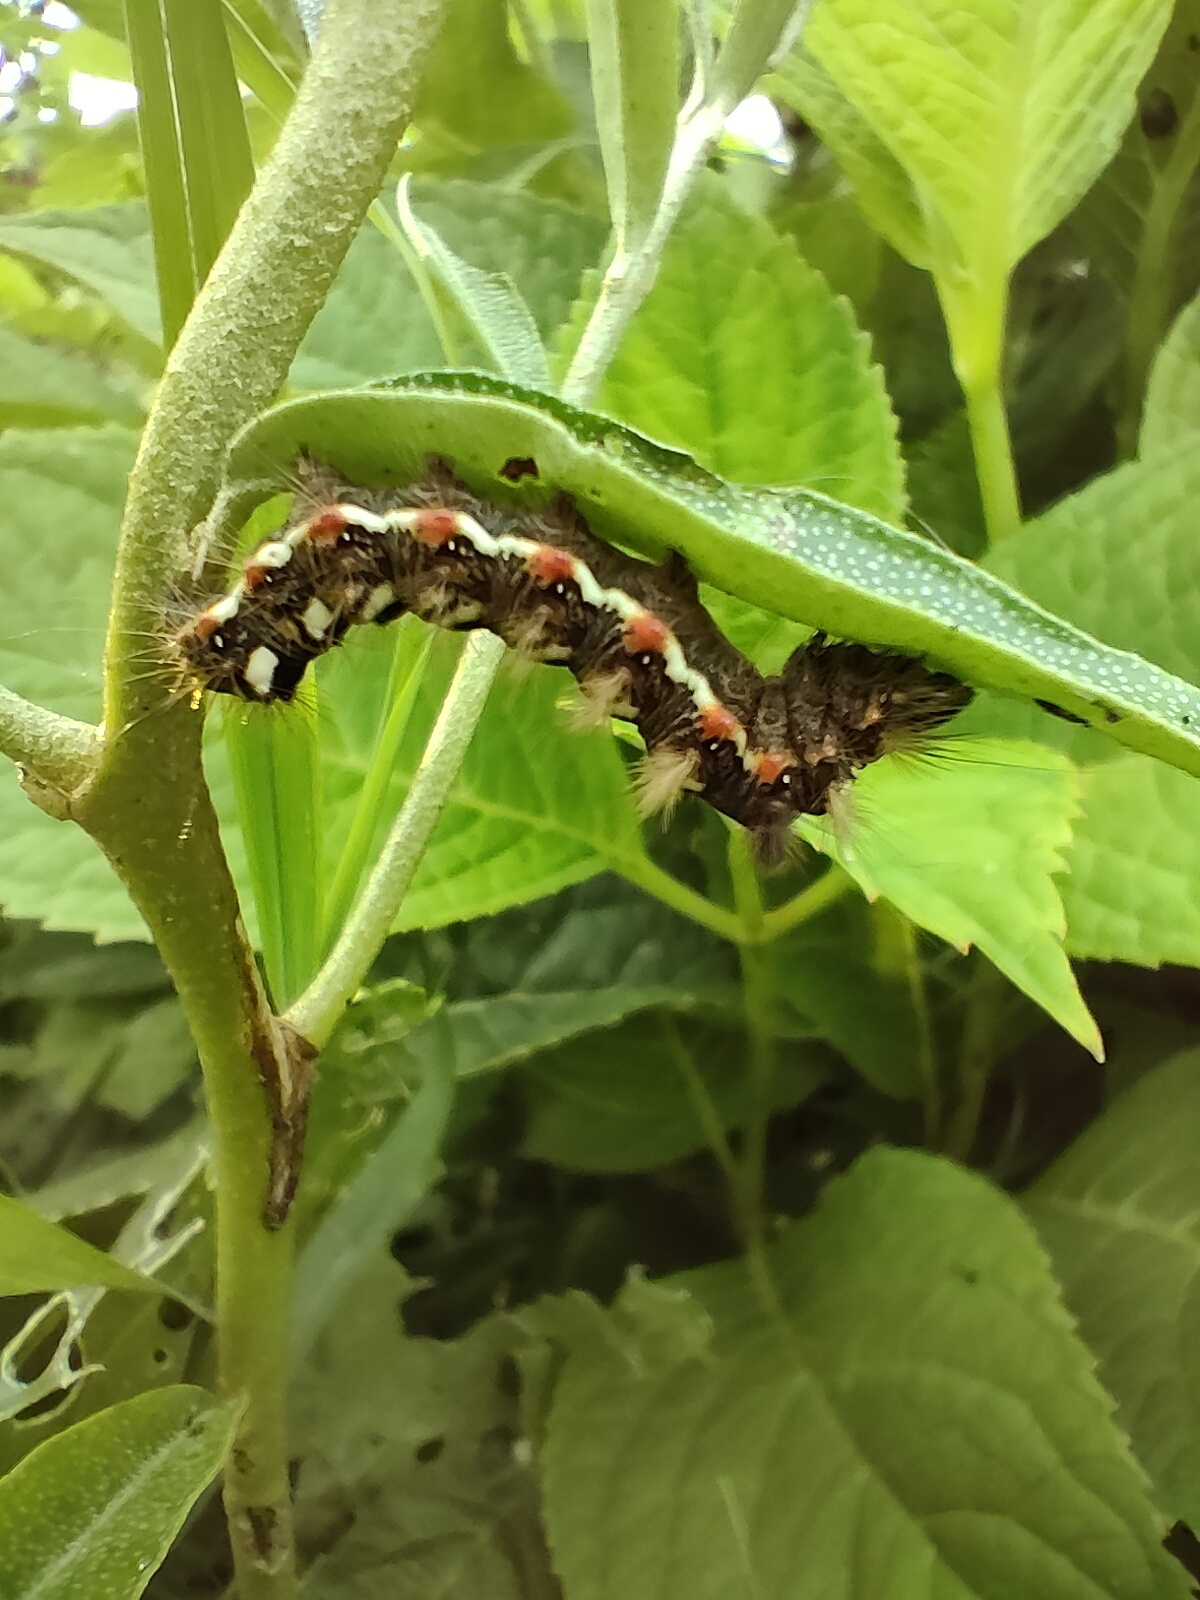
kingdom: Animalia
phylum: Arthropoda
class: Insecta
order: Lepidoptera
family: Noctuidae
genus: Acronicta
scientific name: Acronicta rumicis
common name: Knot grass
